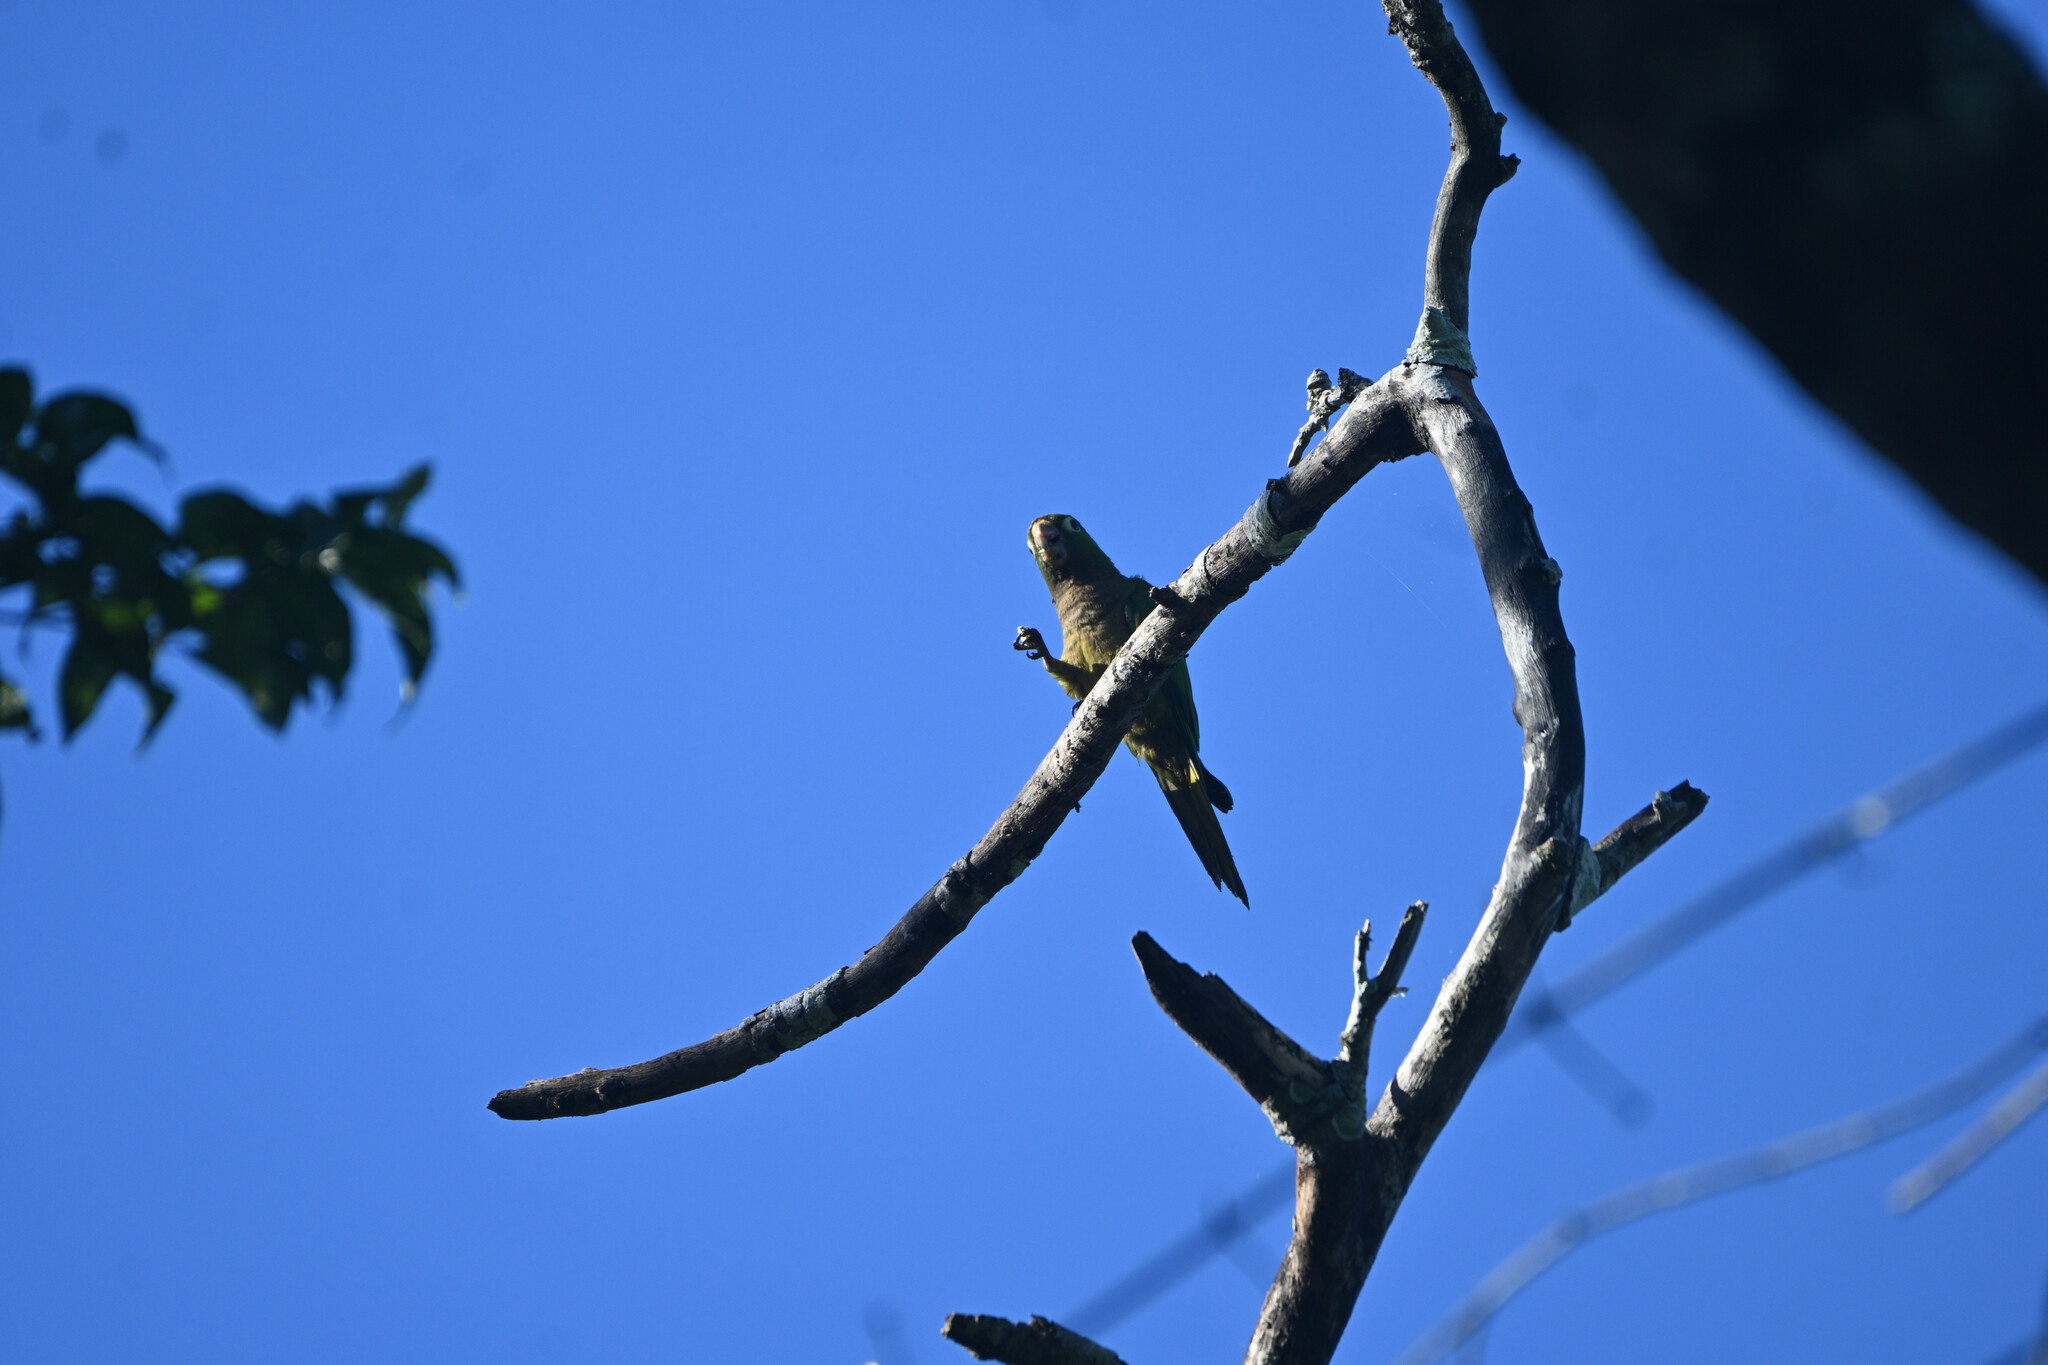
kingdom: Animalia
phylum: Chordata
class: Aves
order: Psittaciformes
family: Psittacidae
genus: Aratinga
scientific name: Aratinga nana
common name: Olive-throated parakeet
